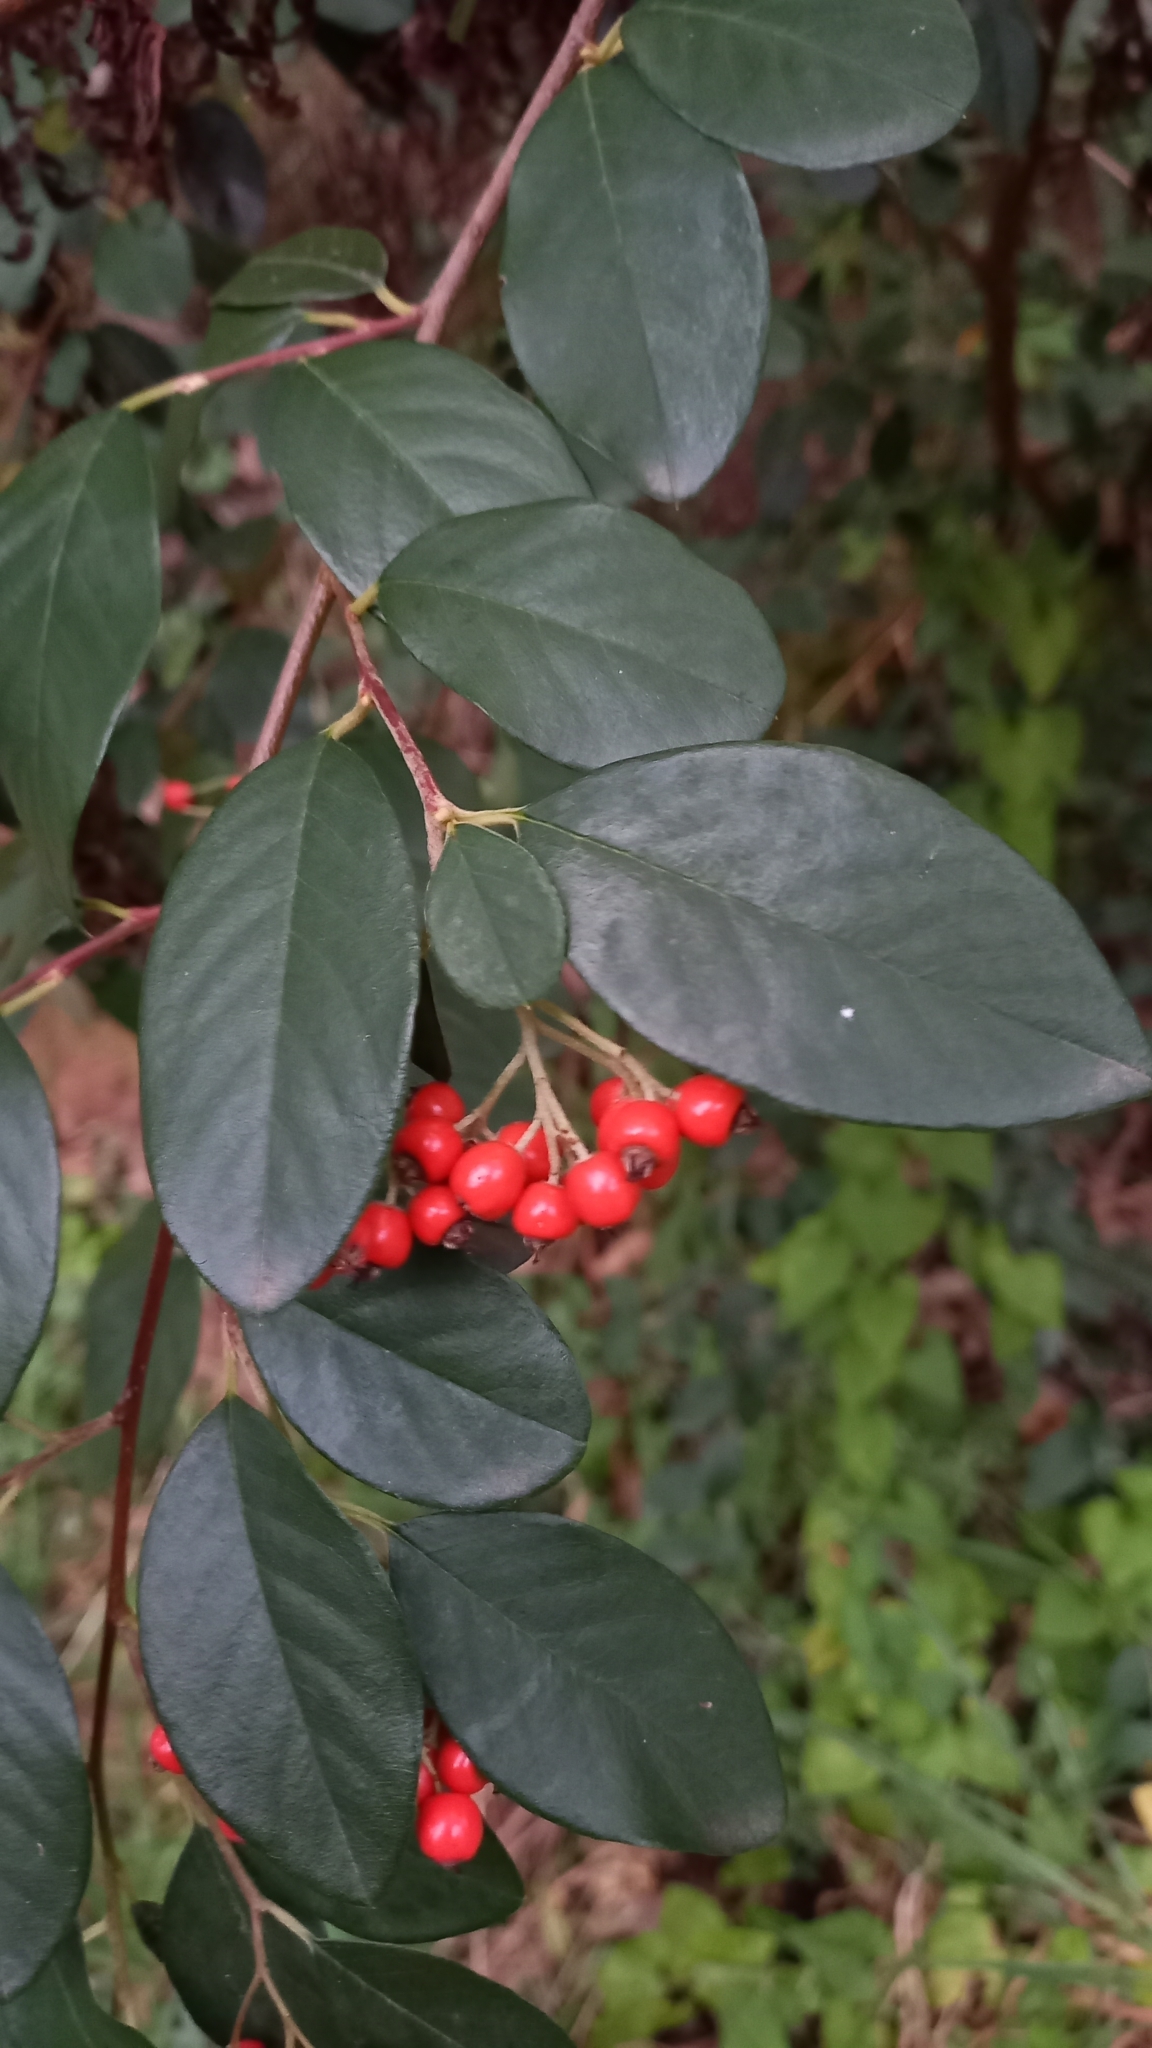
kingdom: Plantae
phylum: Tracheophyta
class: Magnoliopsida
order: Rosales
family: Rosaceae
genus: Cotoneaster
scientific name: Cotoneaster glaucophyllus
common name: Glaucous cotoneaster
